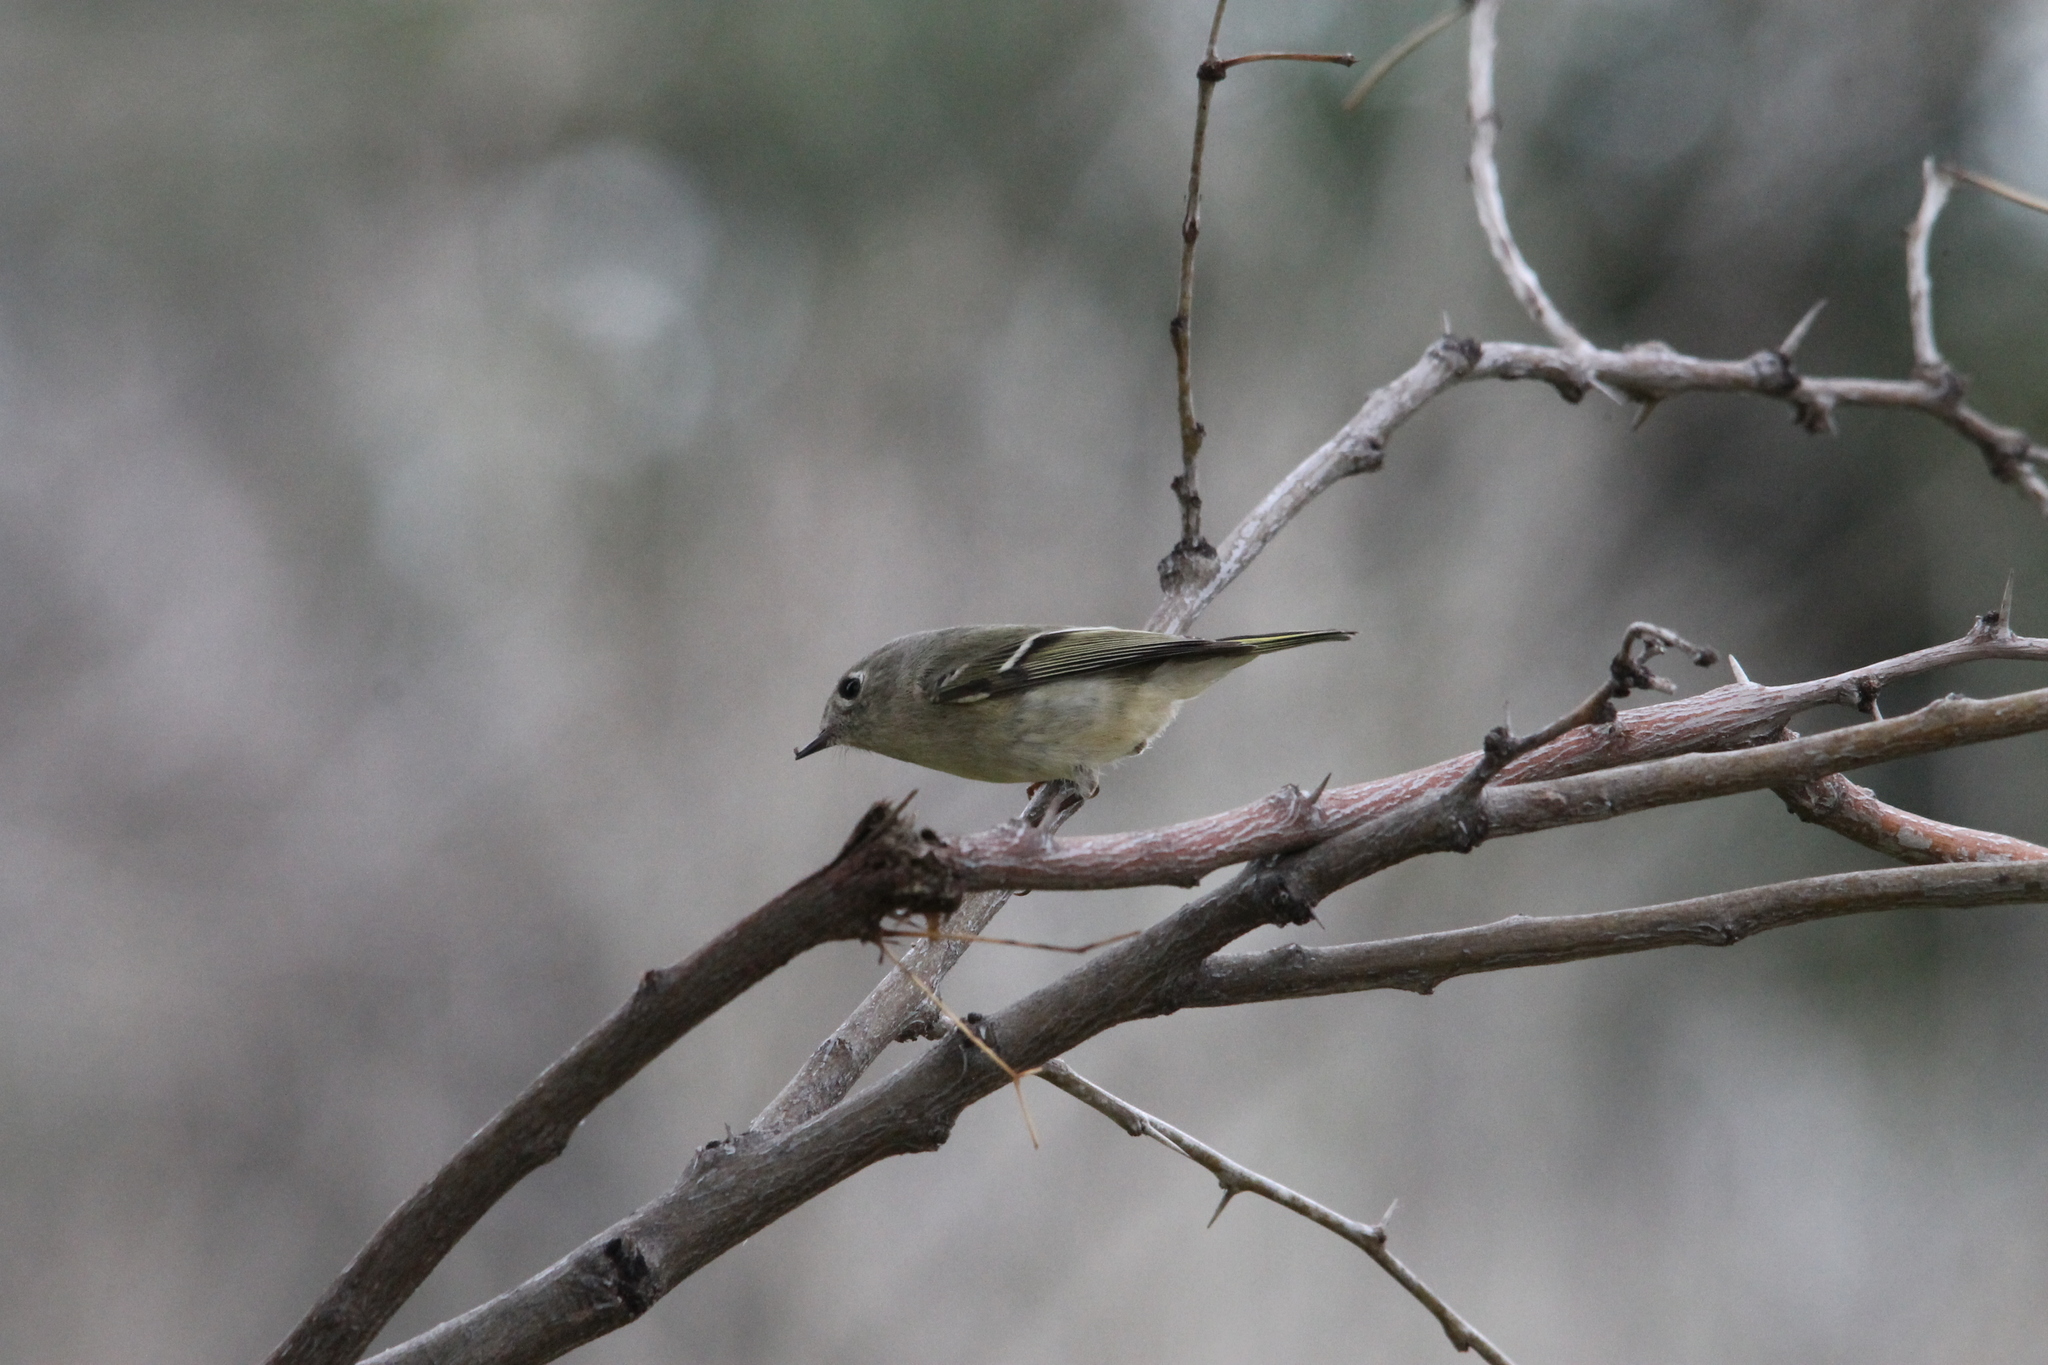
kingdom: Animalia
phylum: Chordata
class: Aves
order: Passeriformes
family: Regulidae
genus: Regulus
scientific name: Regulus calendula
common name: Ruby-crowned kinglet
